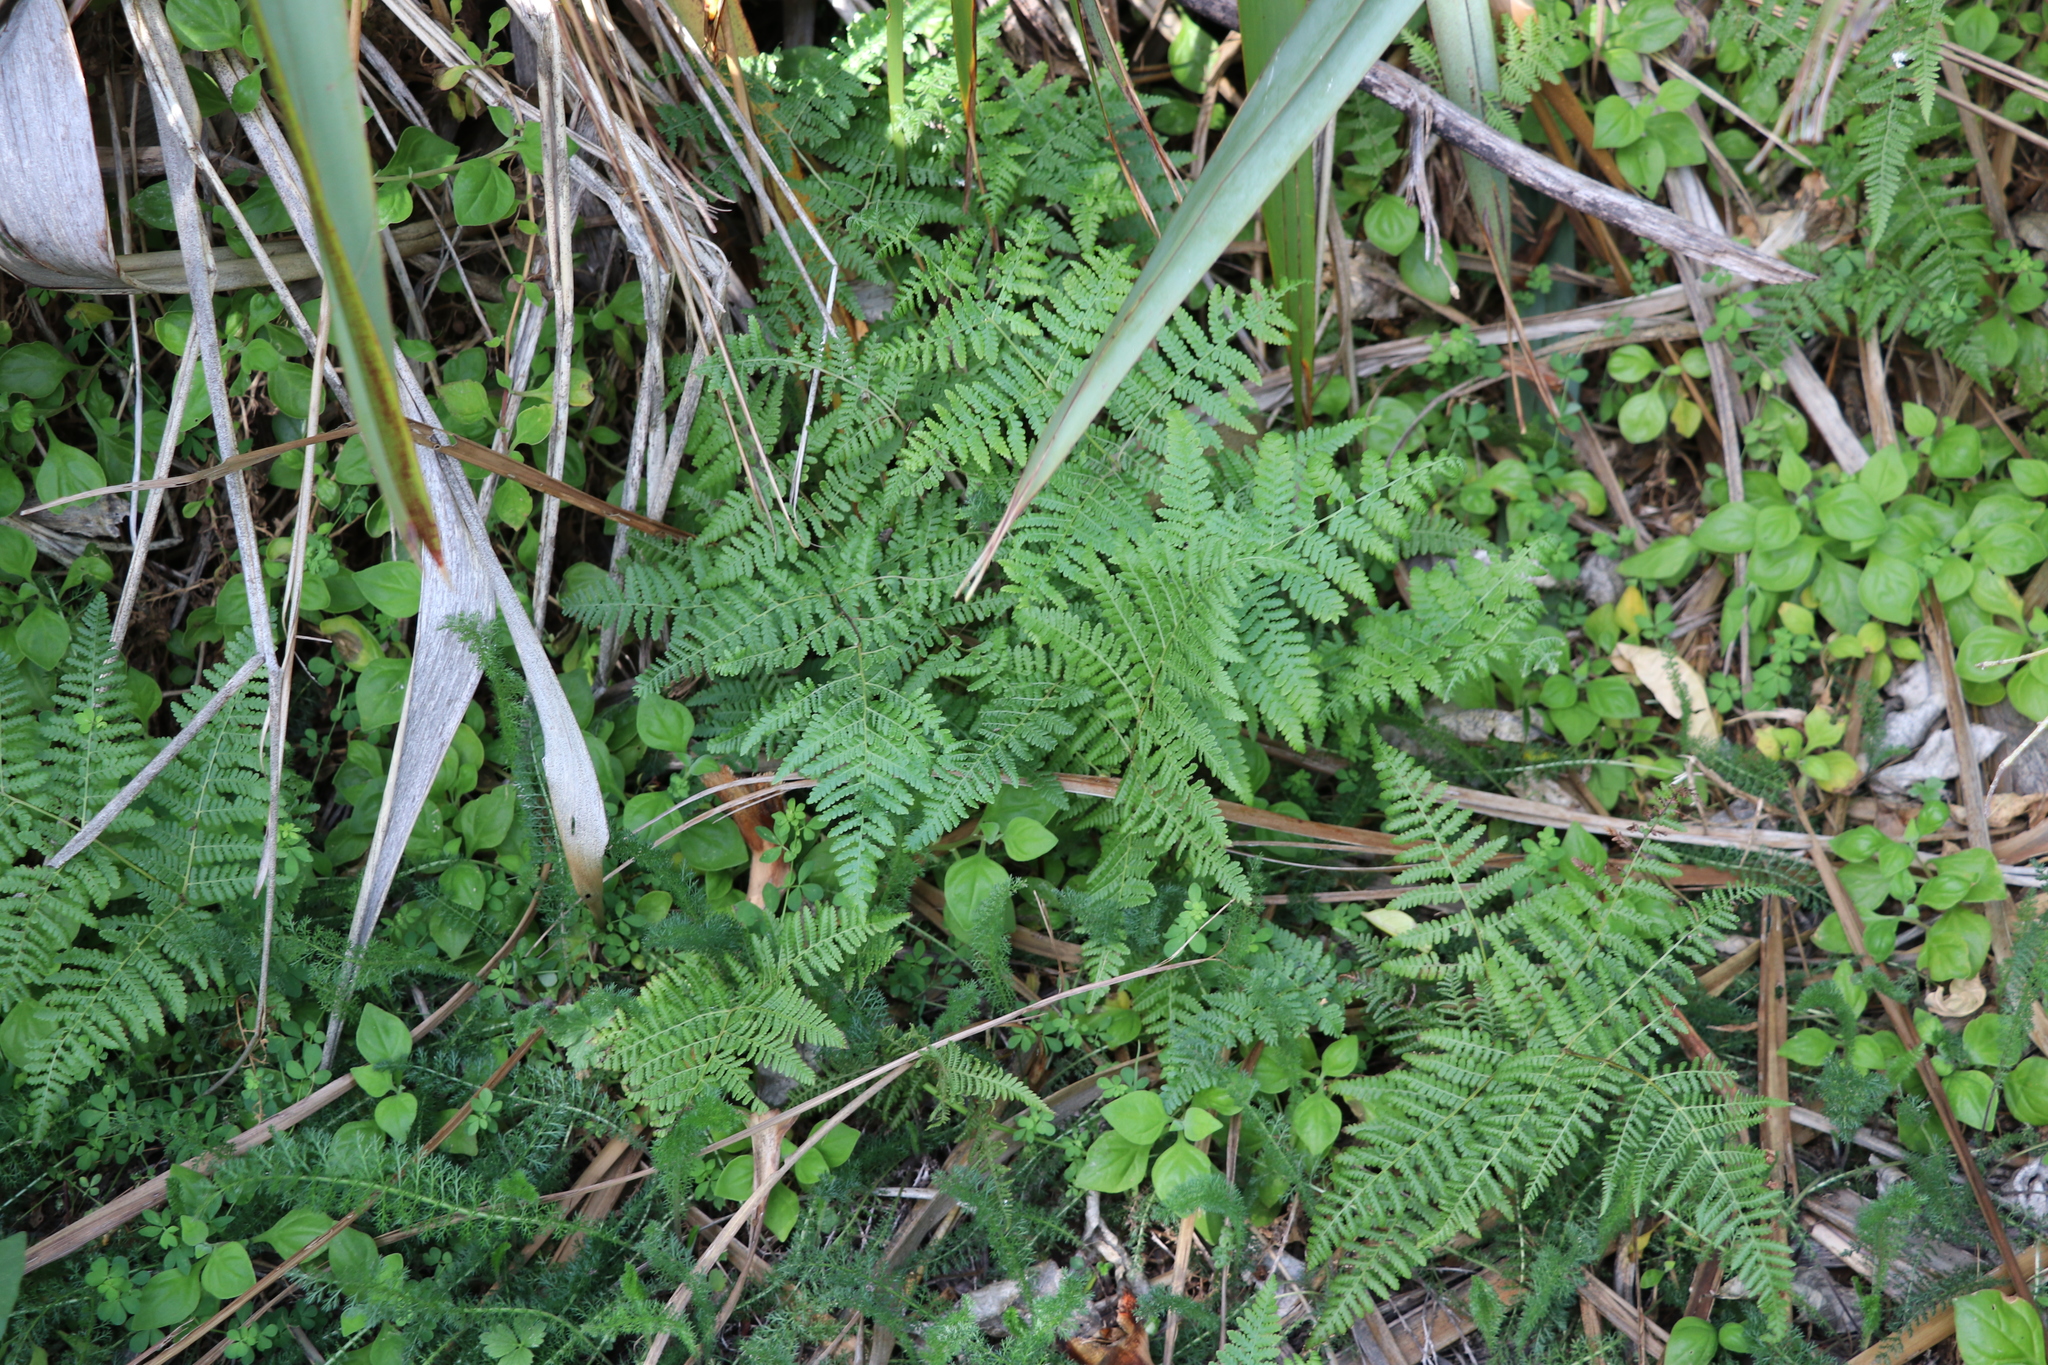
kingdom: Plantae
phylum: Tracheophyta
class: Polypodiopsida
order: Polypodiales
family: Dennstaedtiaceae
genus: Hypolepis
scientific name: Hypolepis ambigua
